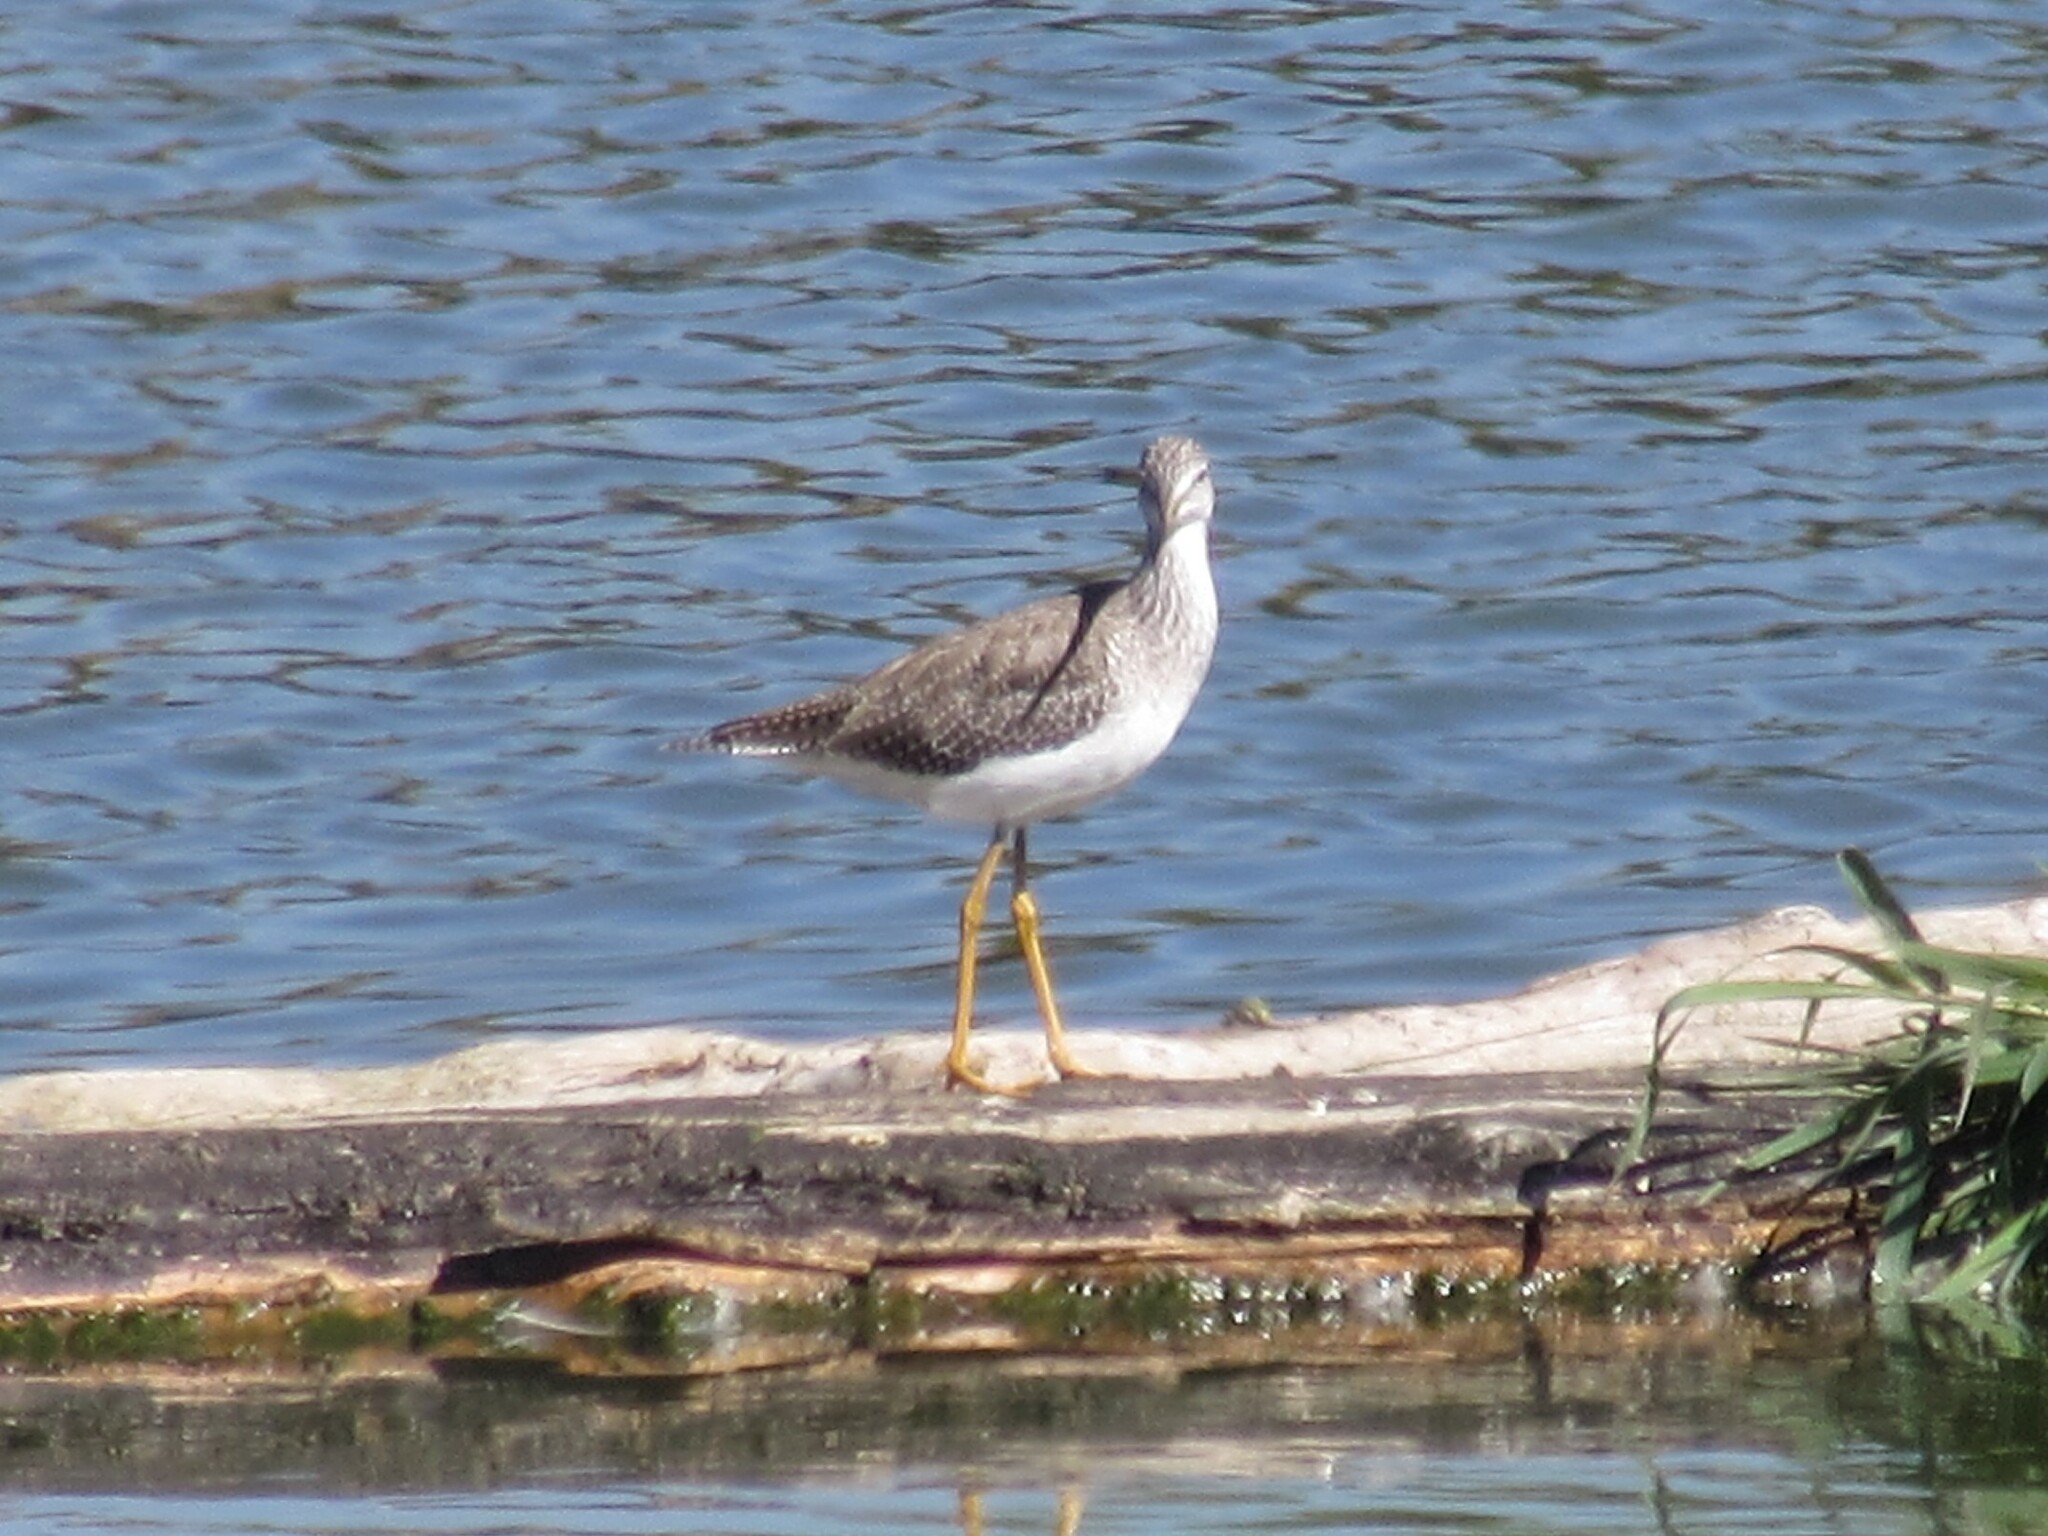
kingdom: Animalia
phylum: Chordata
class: Aves
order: Charadriiformes
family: Scolopacidae
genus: Tringa
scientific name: Tringa melanoleuca
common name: Greater yellowlegs
